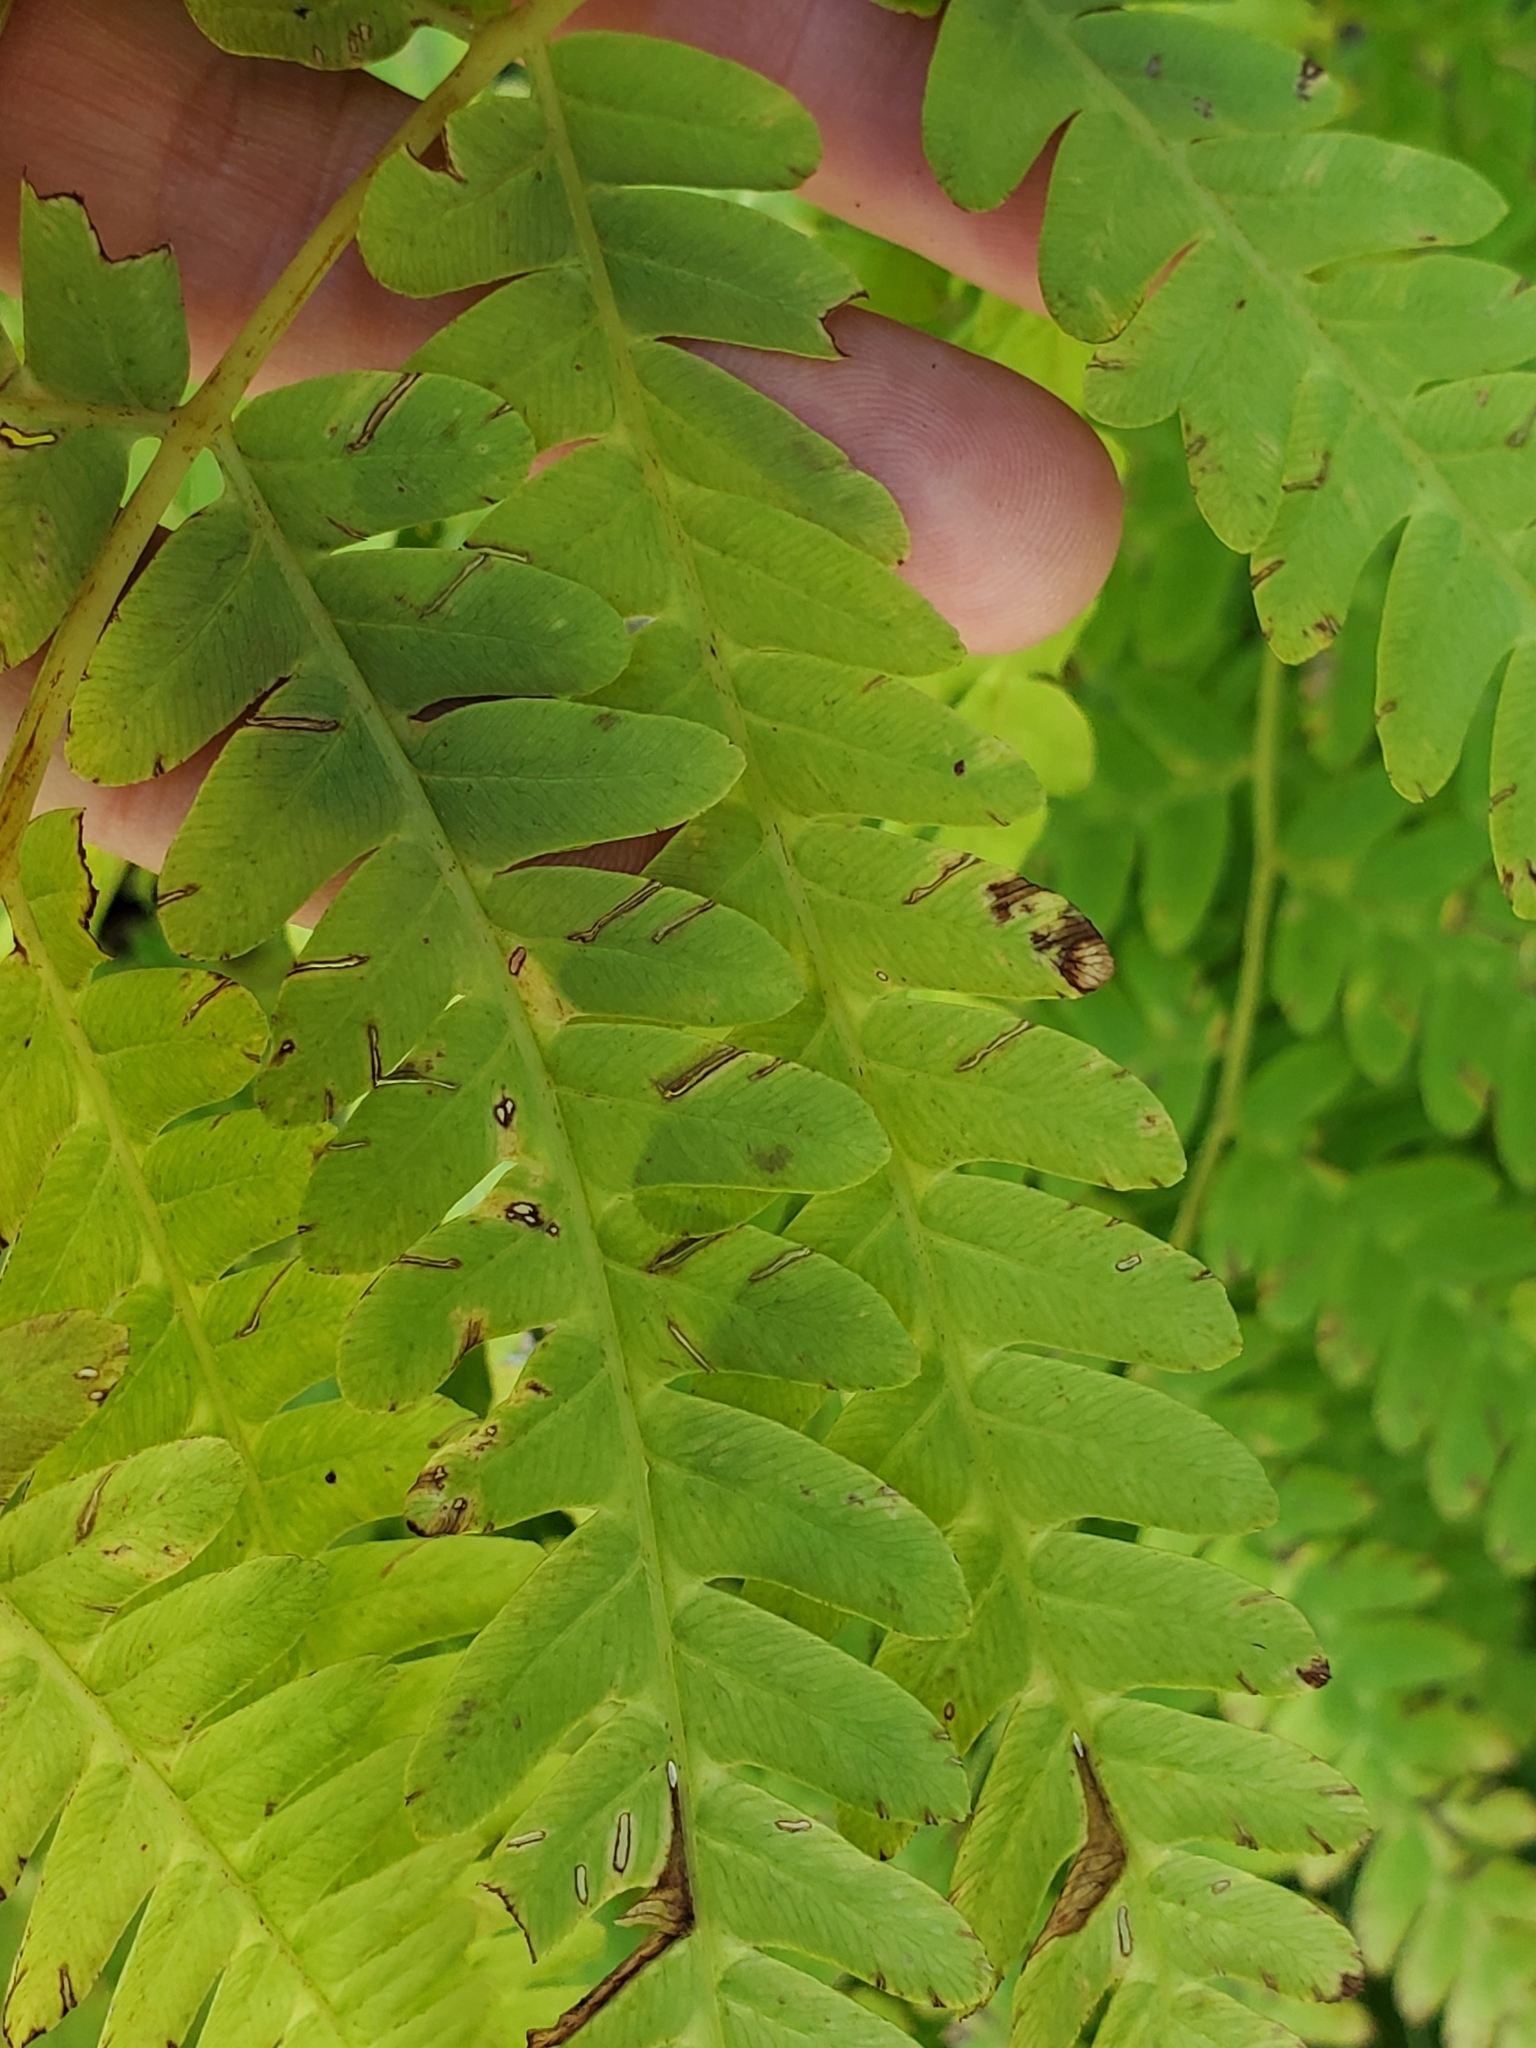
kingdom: Plantae
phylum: Tracheophyta
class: Polypodiopsida
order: Osmundales
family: Osmundaceae
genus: Claytosmunda
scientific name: Claytosmunda claytoniana
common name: Clayton's fern
